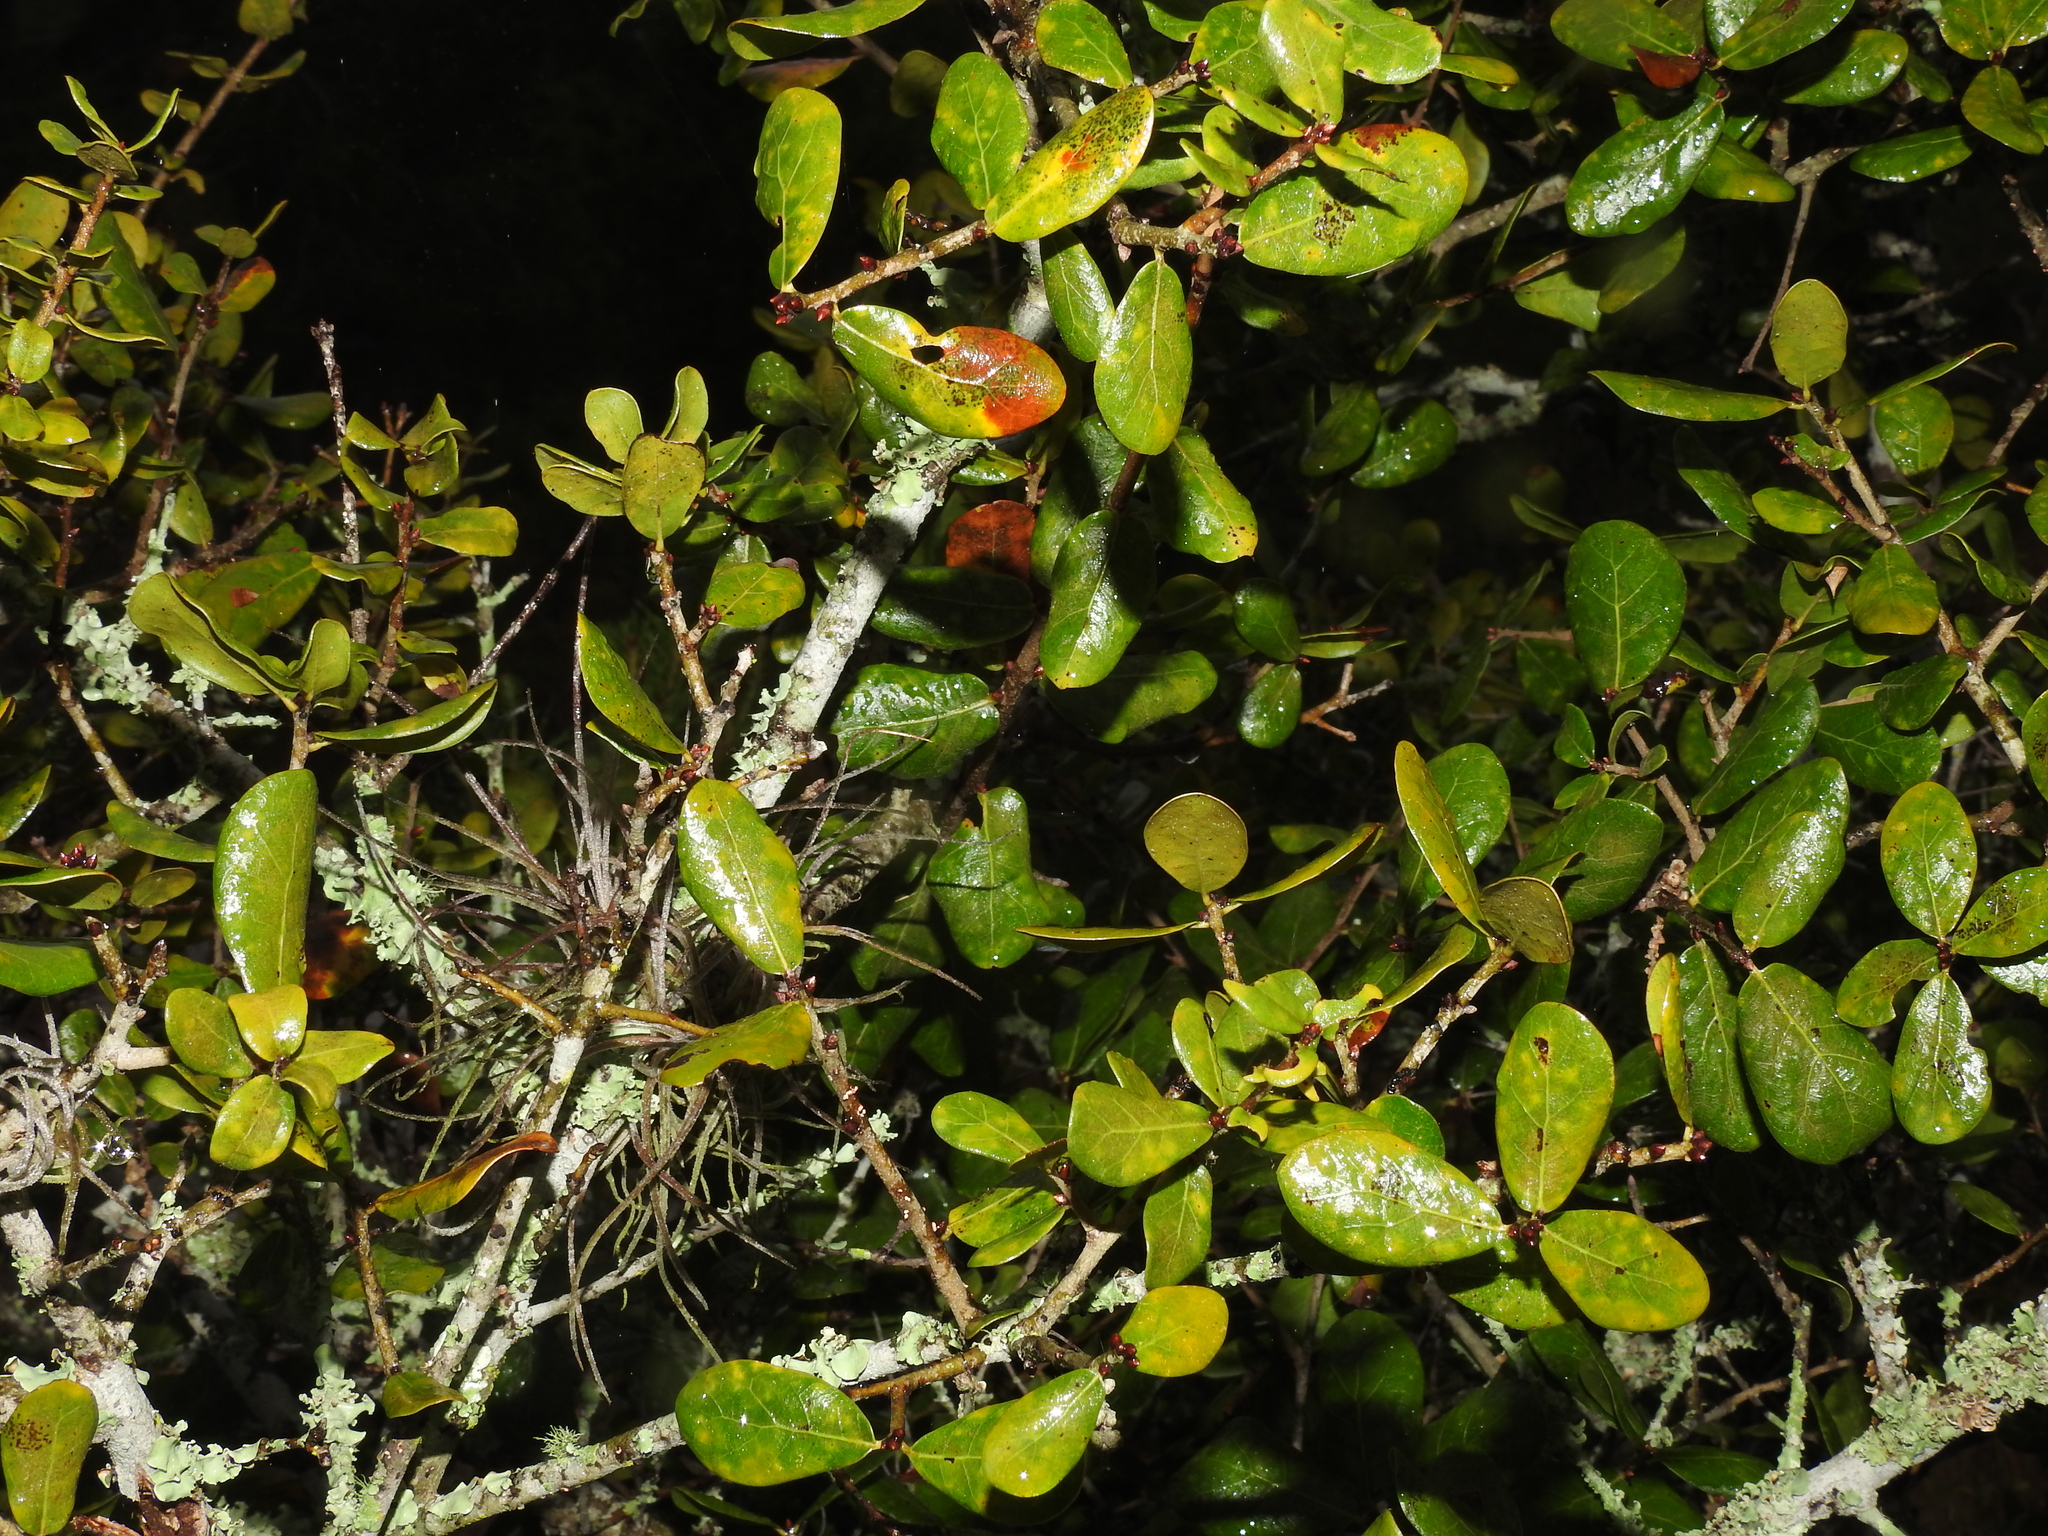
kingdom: Plantae
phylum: Tracheophyta
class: Magnoliopsida
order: Fagales
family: Fagaceae
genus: Quercus
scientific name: Quercus myrtifolia
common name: Myrtle oak
